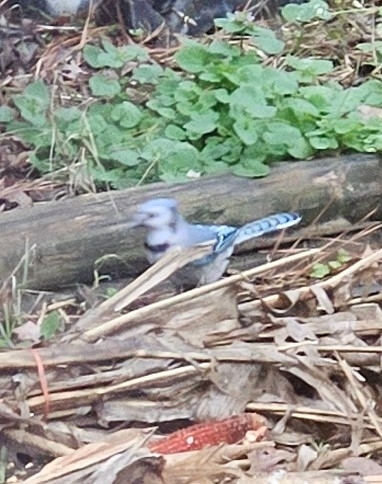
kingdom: Animalia
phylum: Chordata
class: Aves
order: Passeriformes
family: Corvidae
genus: Cyanocitta
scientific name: Cyanocitta cristata
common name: Blue jay
